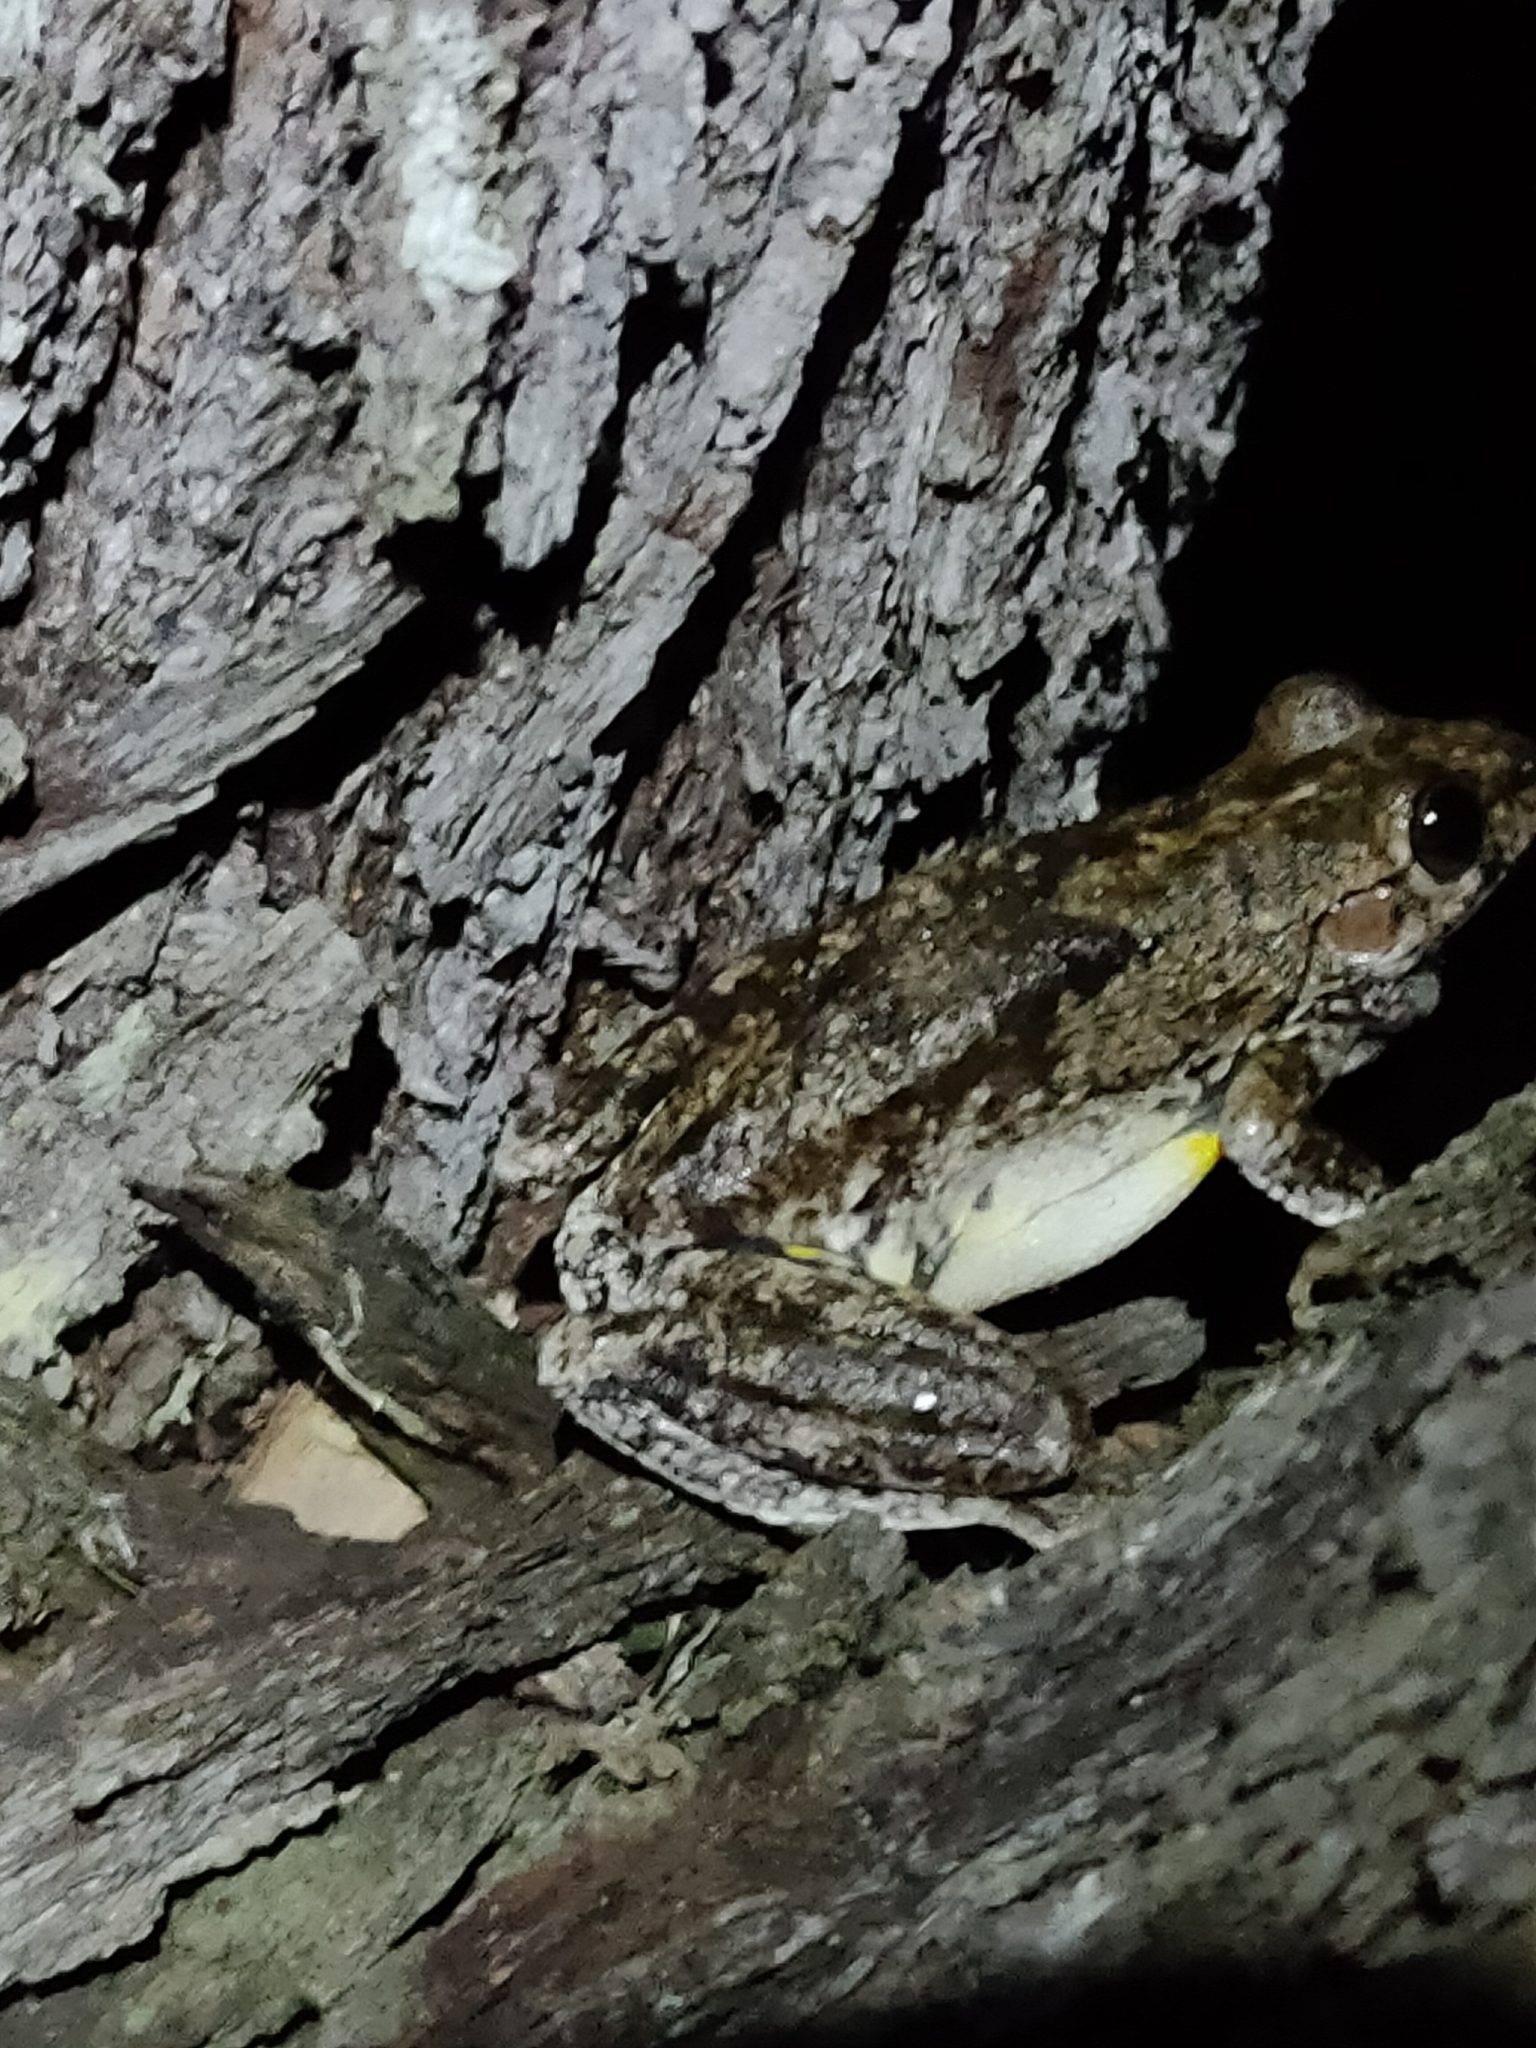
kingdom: Animalia
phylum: Chordata
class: Amphibia
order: Anura
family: Pelodryadidae
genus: Litoria
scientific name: Litoria peronii
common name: Emerald spotted treefrog
